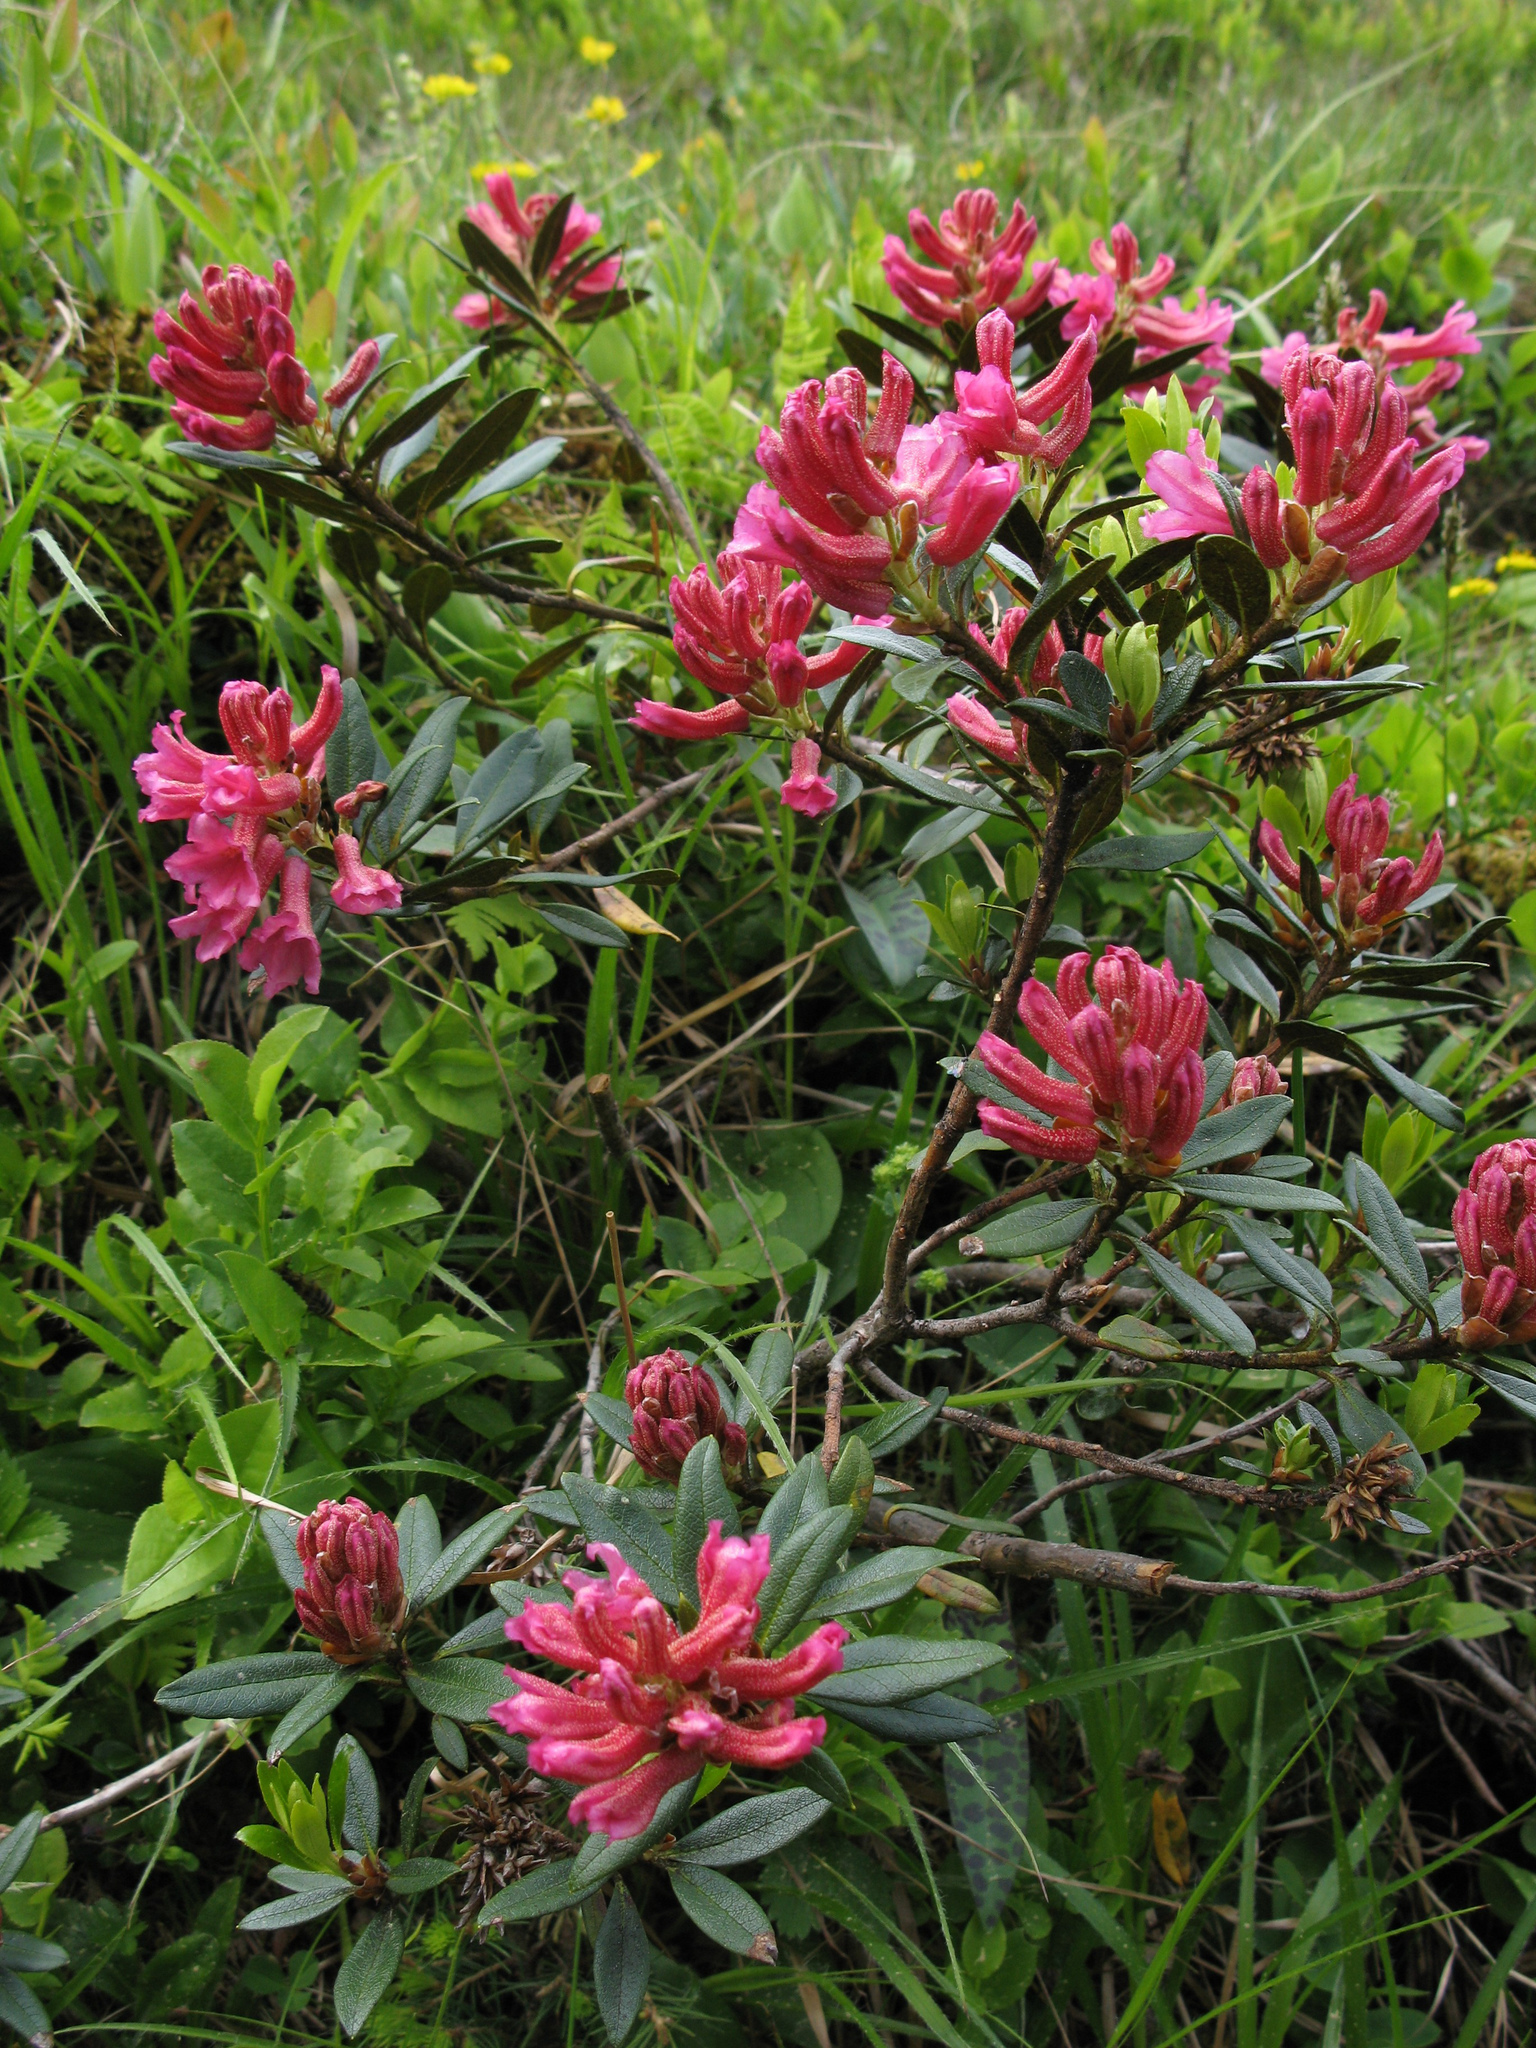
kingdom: Plantae
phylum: Tracheophyta
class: Magnoliopsida
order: Ericales
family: Ericaceae
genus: Rhododendron
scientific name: Rhododendron ferrugineum
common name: Alpenrose
